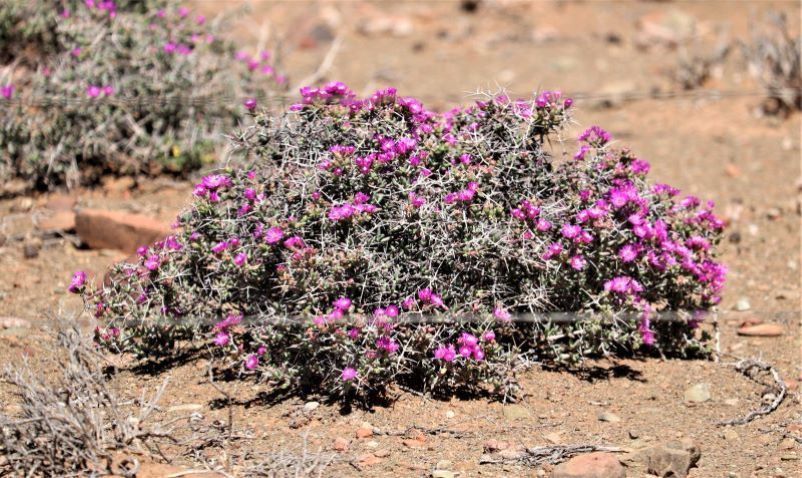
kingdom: Plantae
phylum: Tracheophyta
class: Magnoliopsida
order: Caryophyllales
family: Aizoaceae
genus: Ruschia
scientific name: Ruschia intricata
